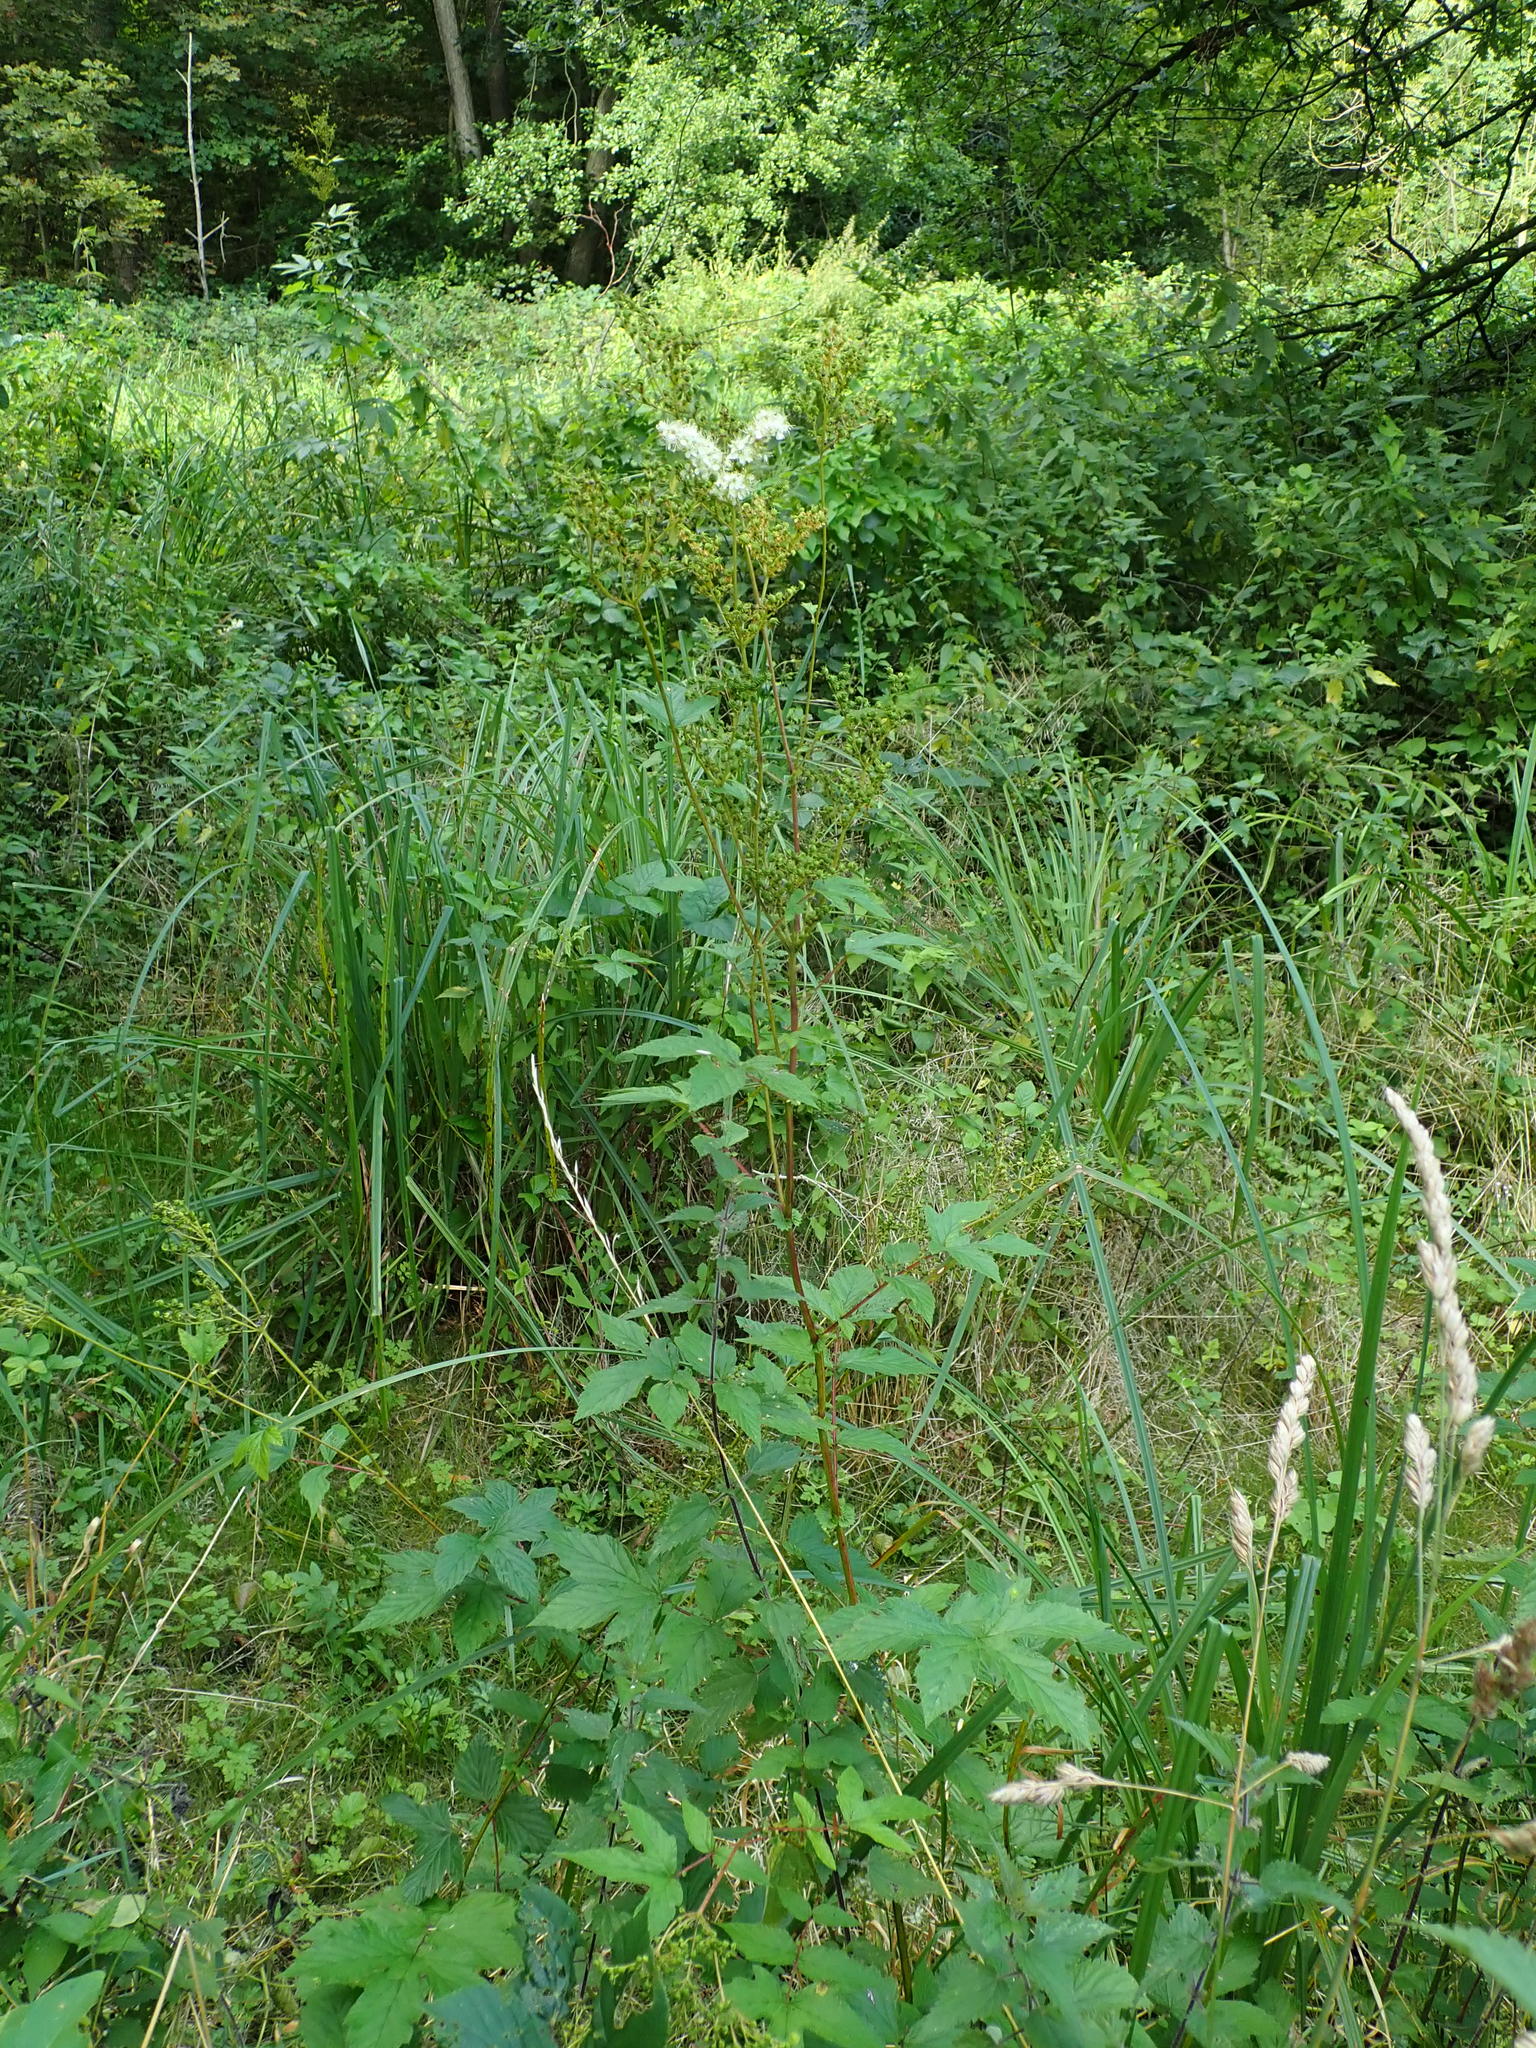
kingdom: Plantae
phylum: Tracheophyta
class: Magnoliopsida
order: Rosales
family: Rosaceae
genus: Filipendula
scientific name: Filipendula ulmaria
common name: Meadowsweet
